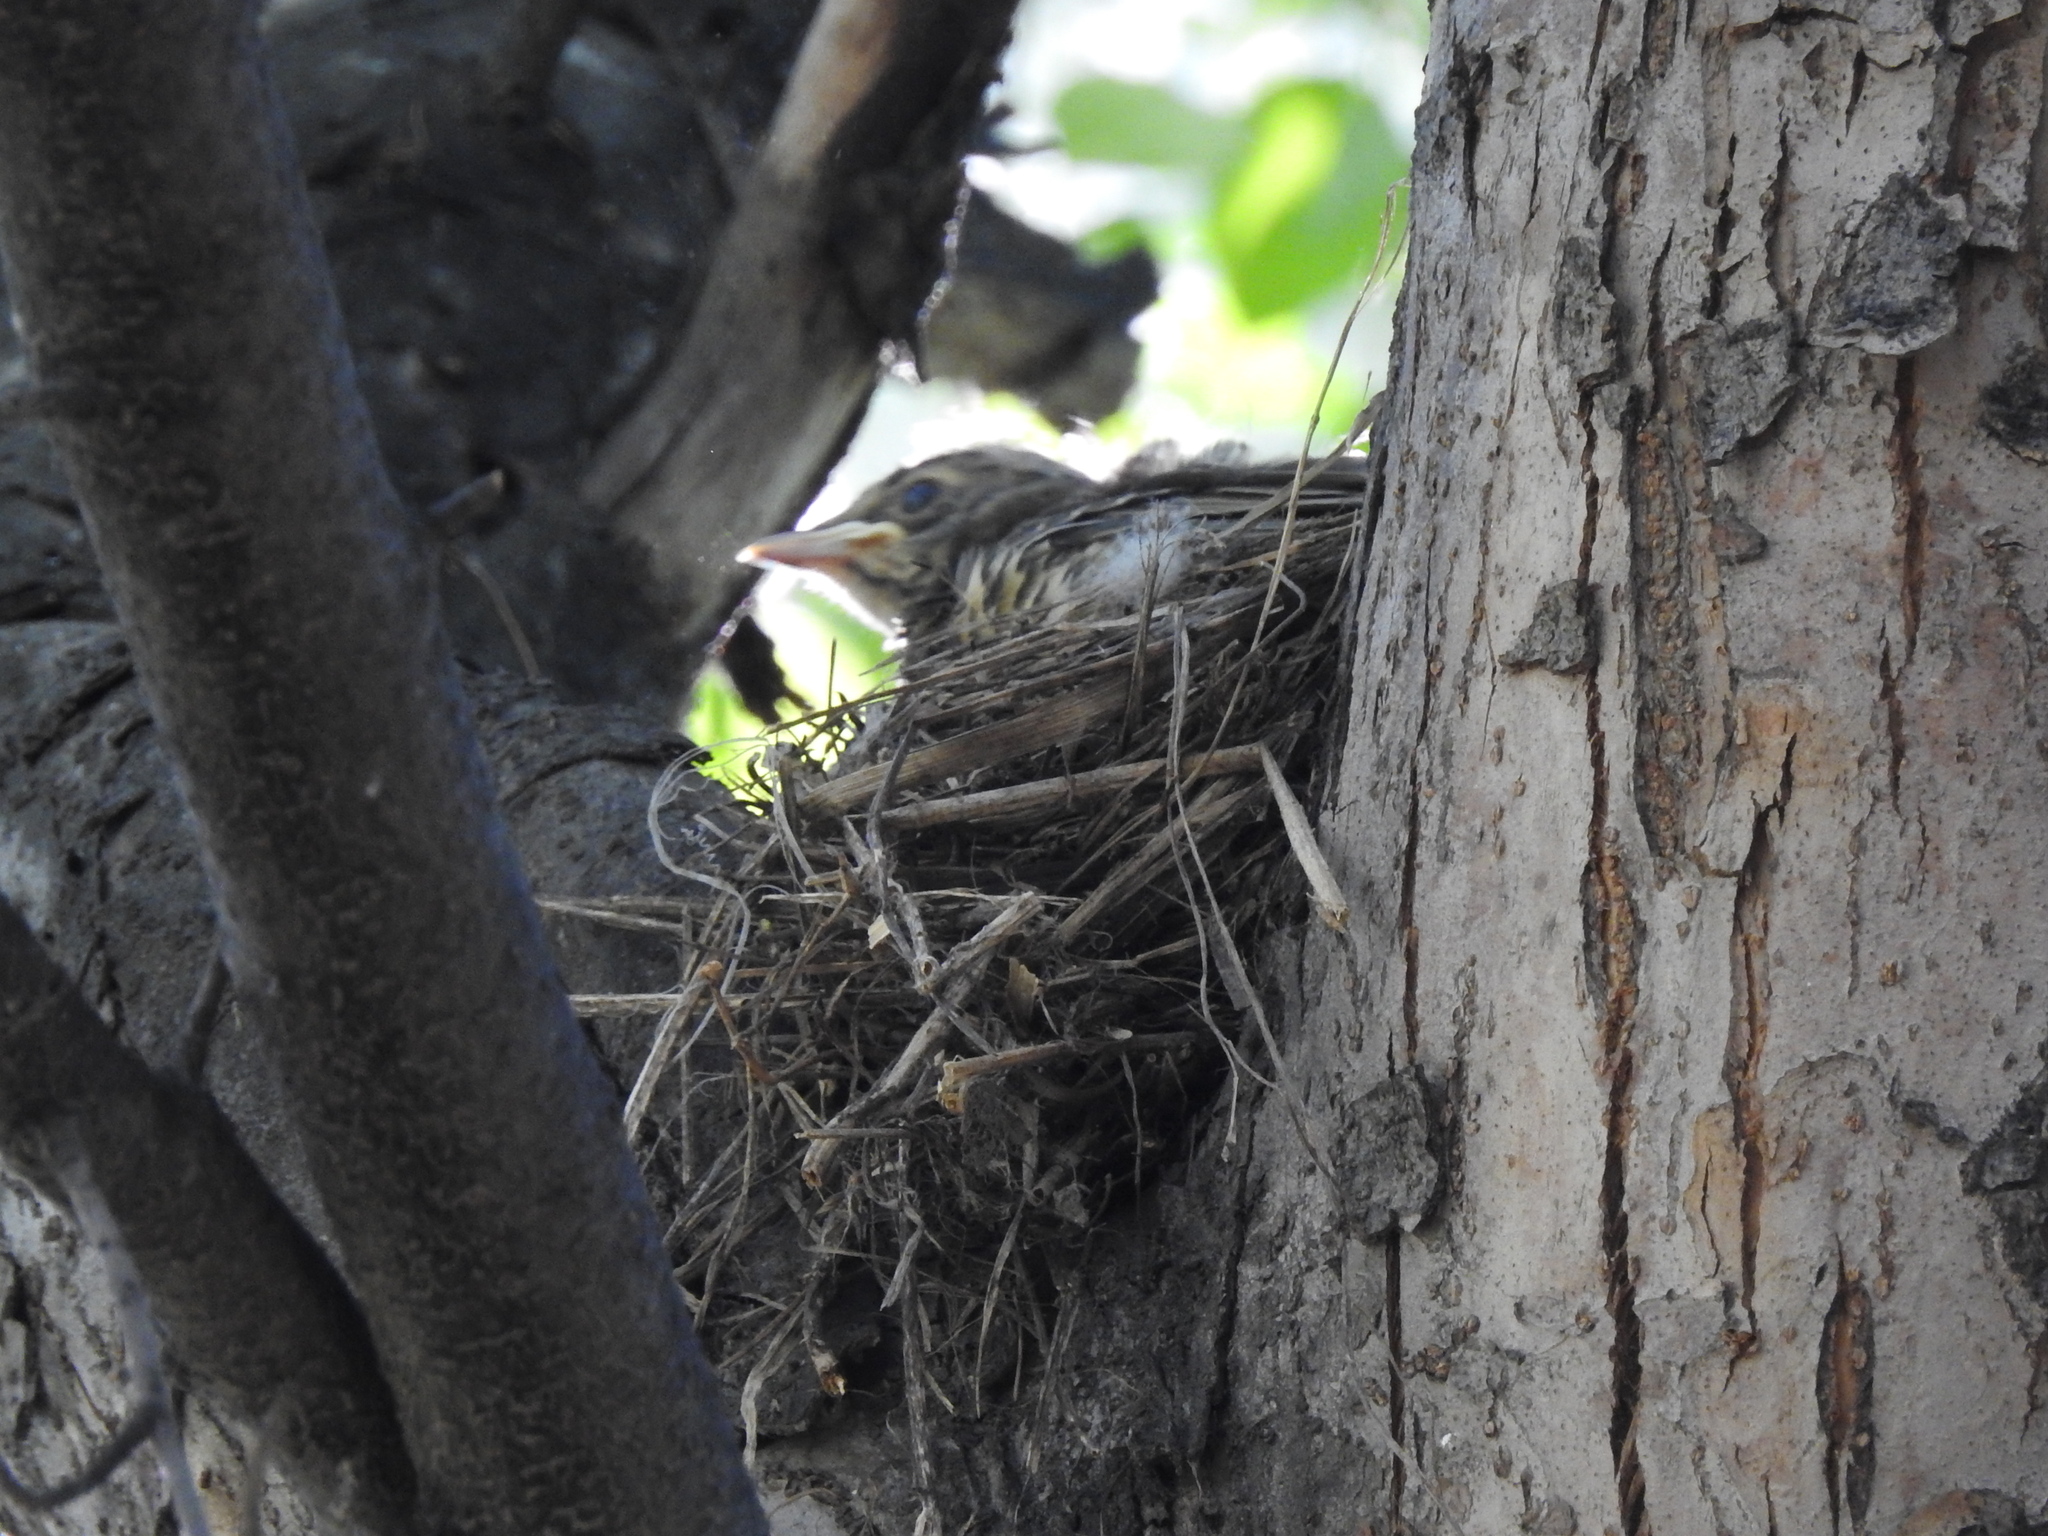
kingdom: Animalia
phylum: Chordata
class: Aves
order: Passeriformes
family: Turdidae
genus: Turdus
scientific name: Turdus pilaris
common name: Fieldfare
